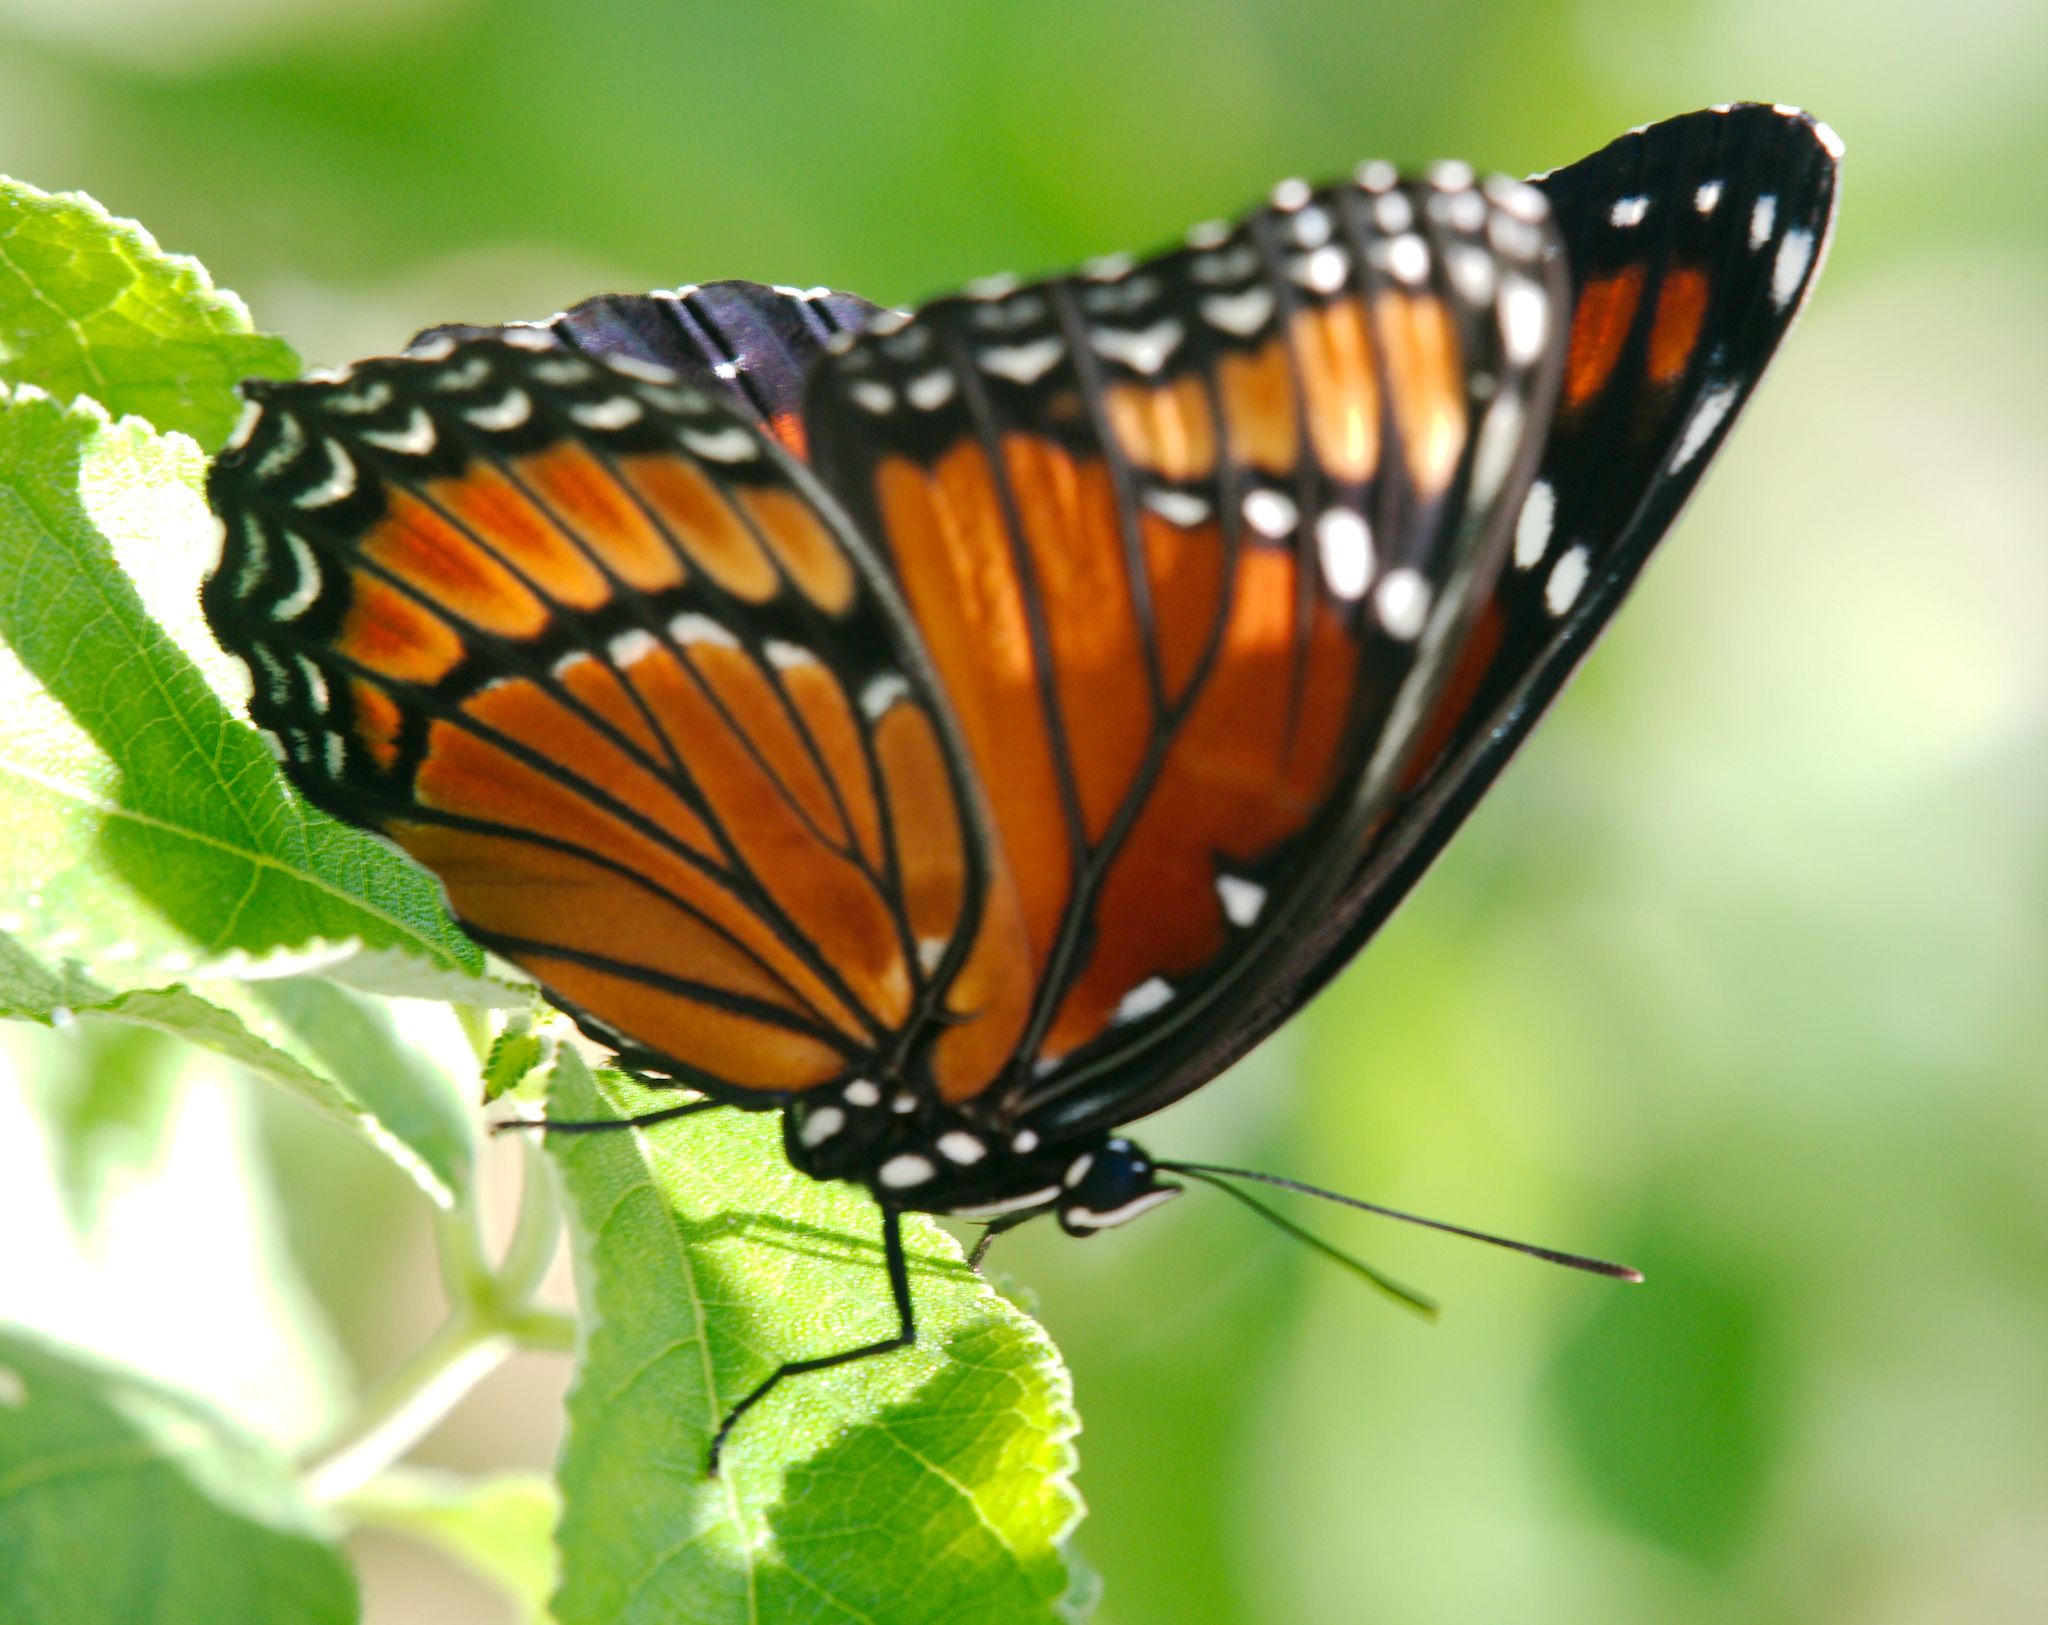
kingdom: Animalia
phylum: Arthropoda
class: Insecta
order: Lepidoptera
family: Nymphalidae
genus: Limenitis
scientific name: Limenitis archippus
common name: Viceroy
